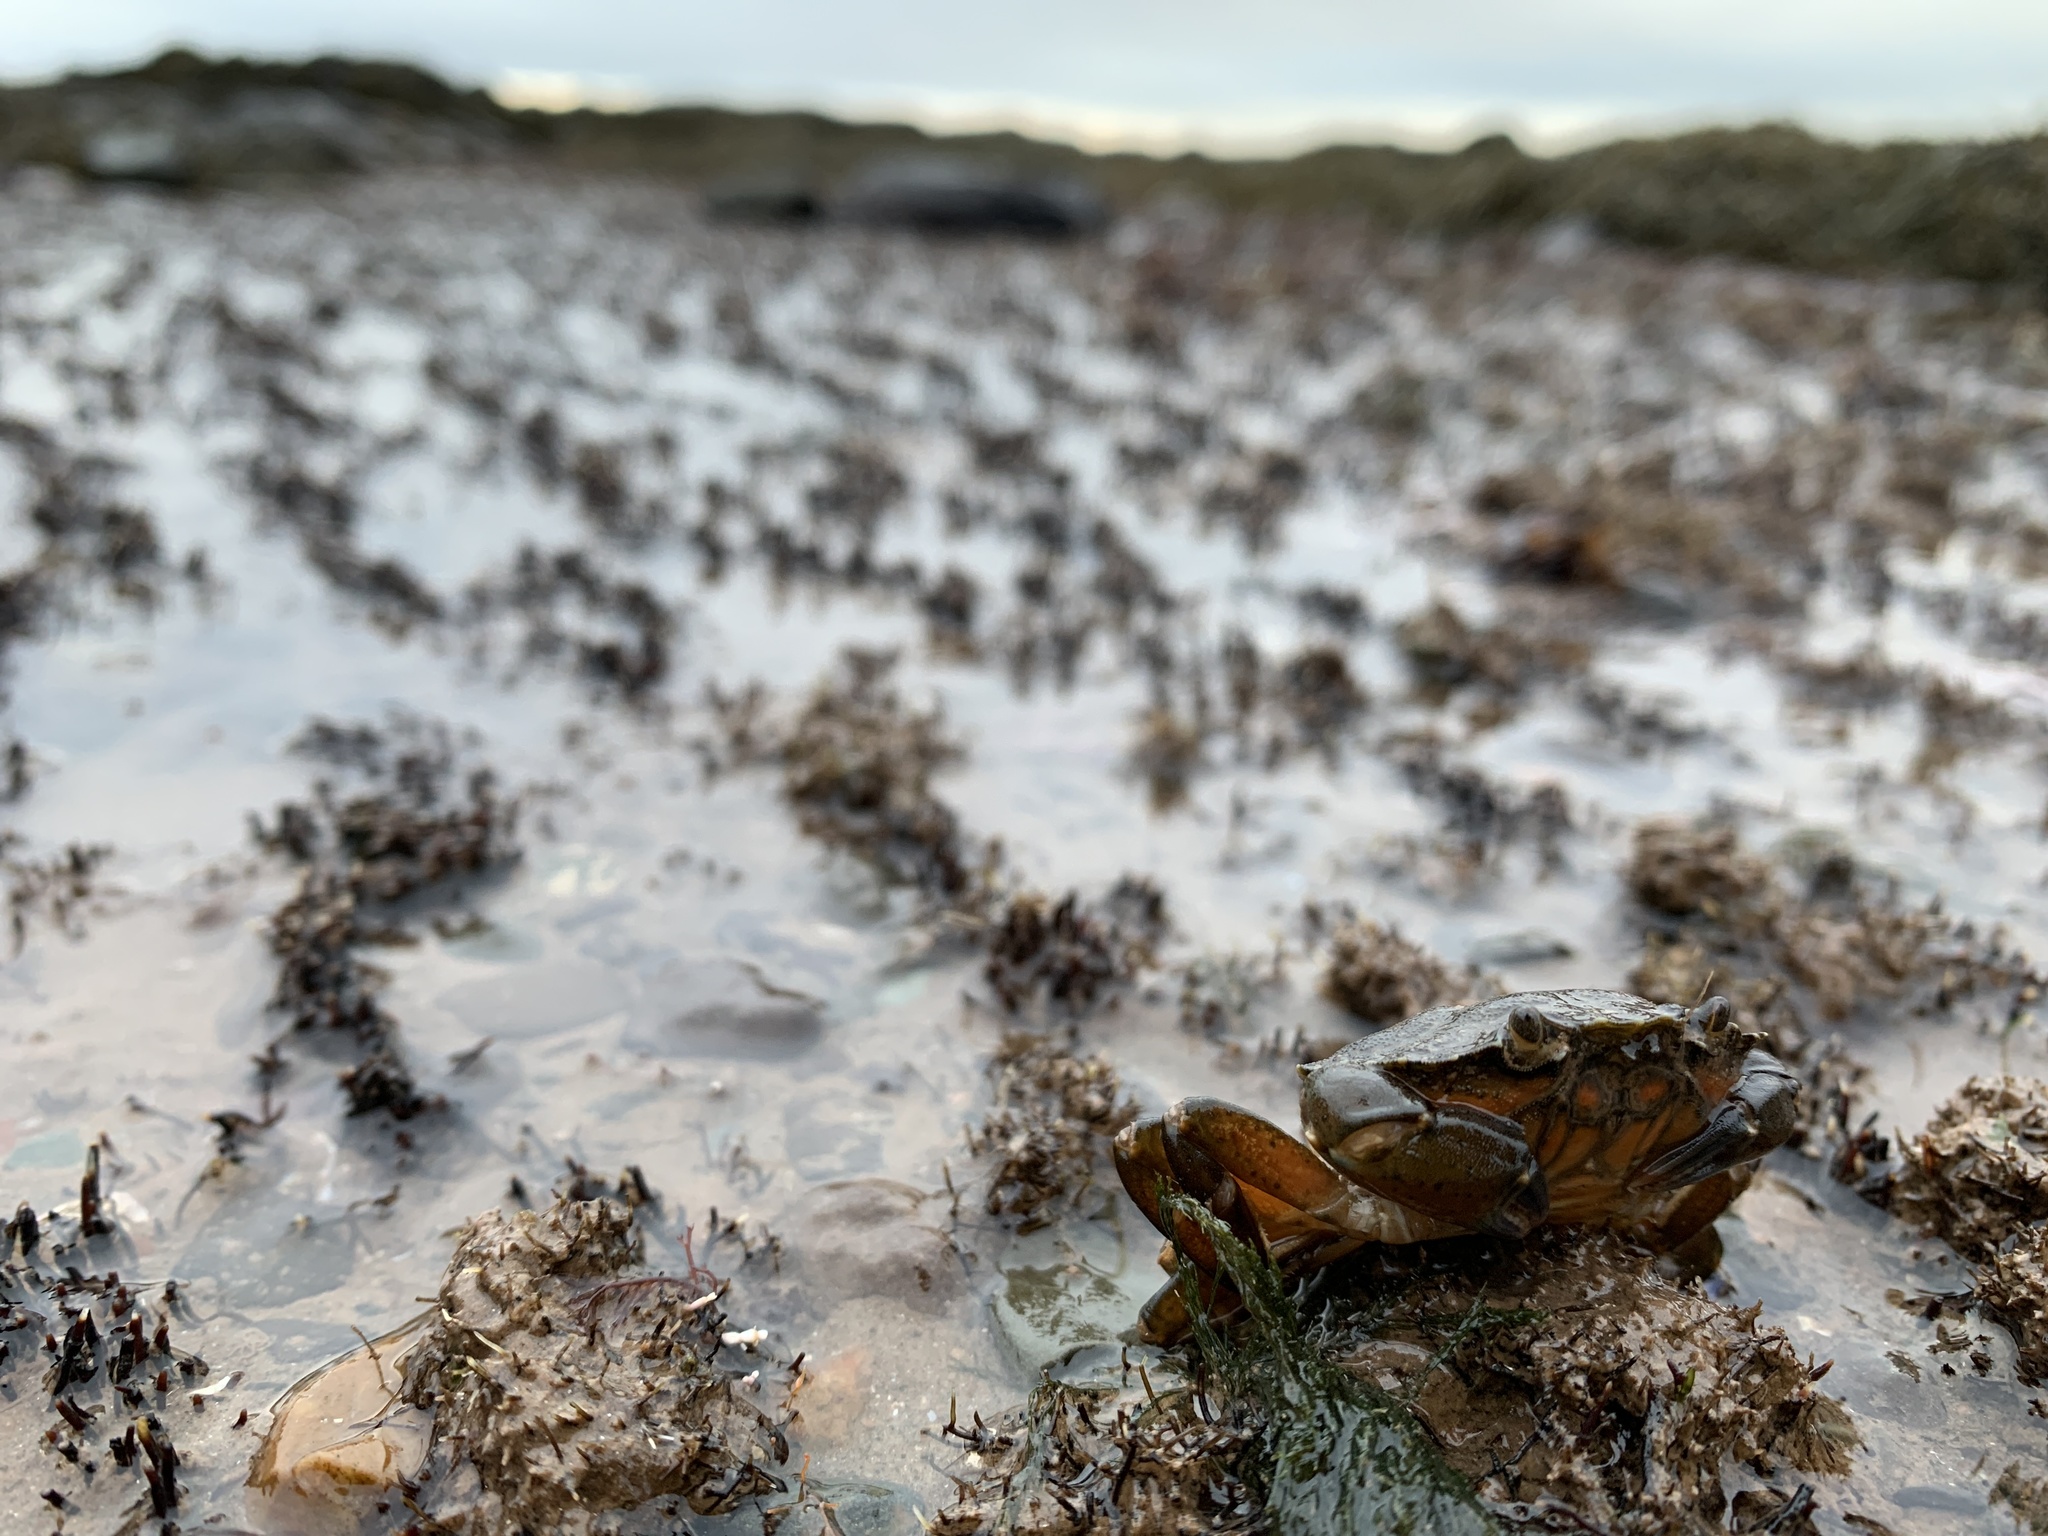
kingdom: Animalia
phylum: Arthropoda
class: Malacostraca
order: Decapoda
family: Carcinidae
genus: Carcinus
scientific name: Carcinus maenas
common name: European green crab
